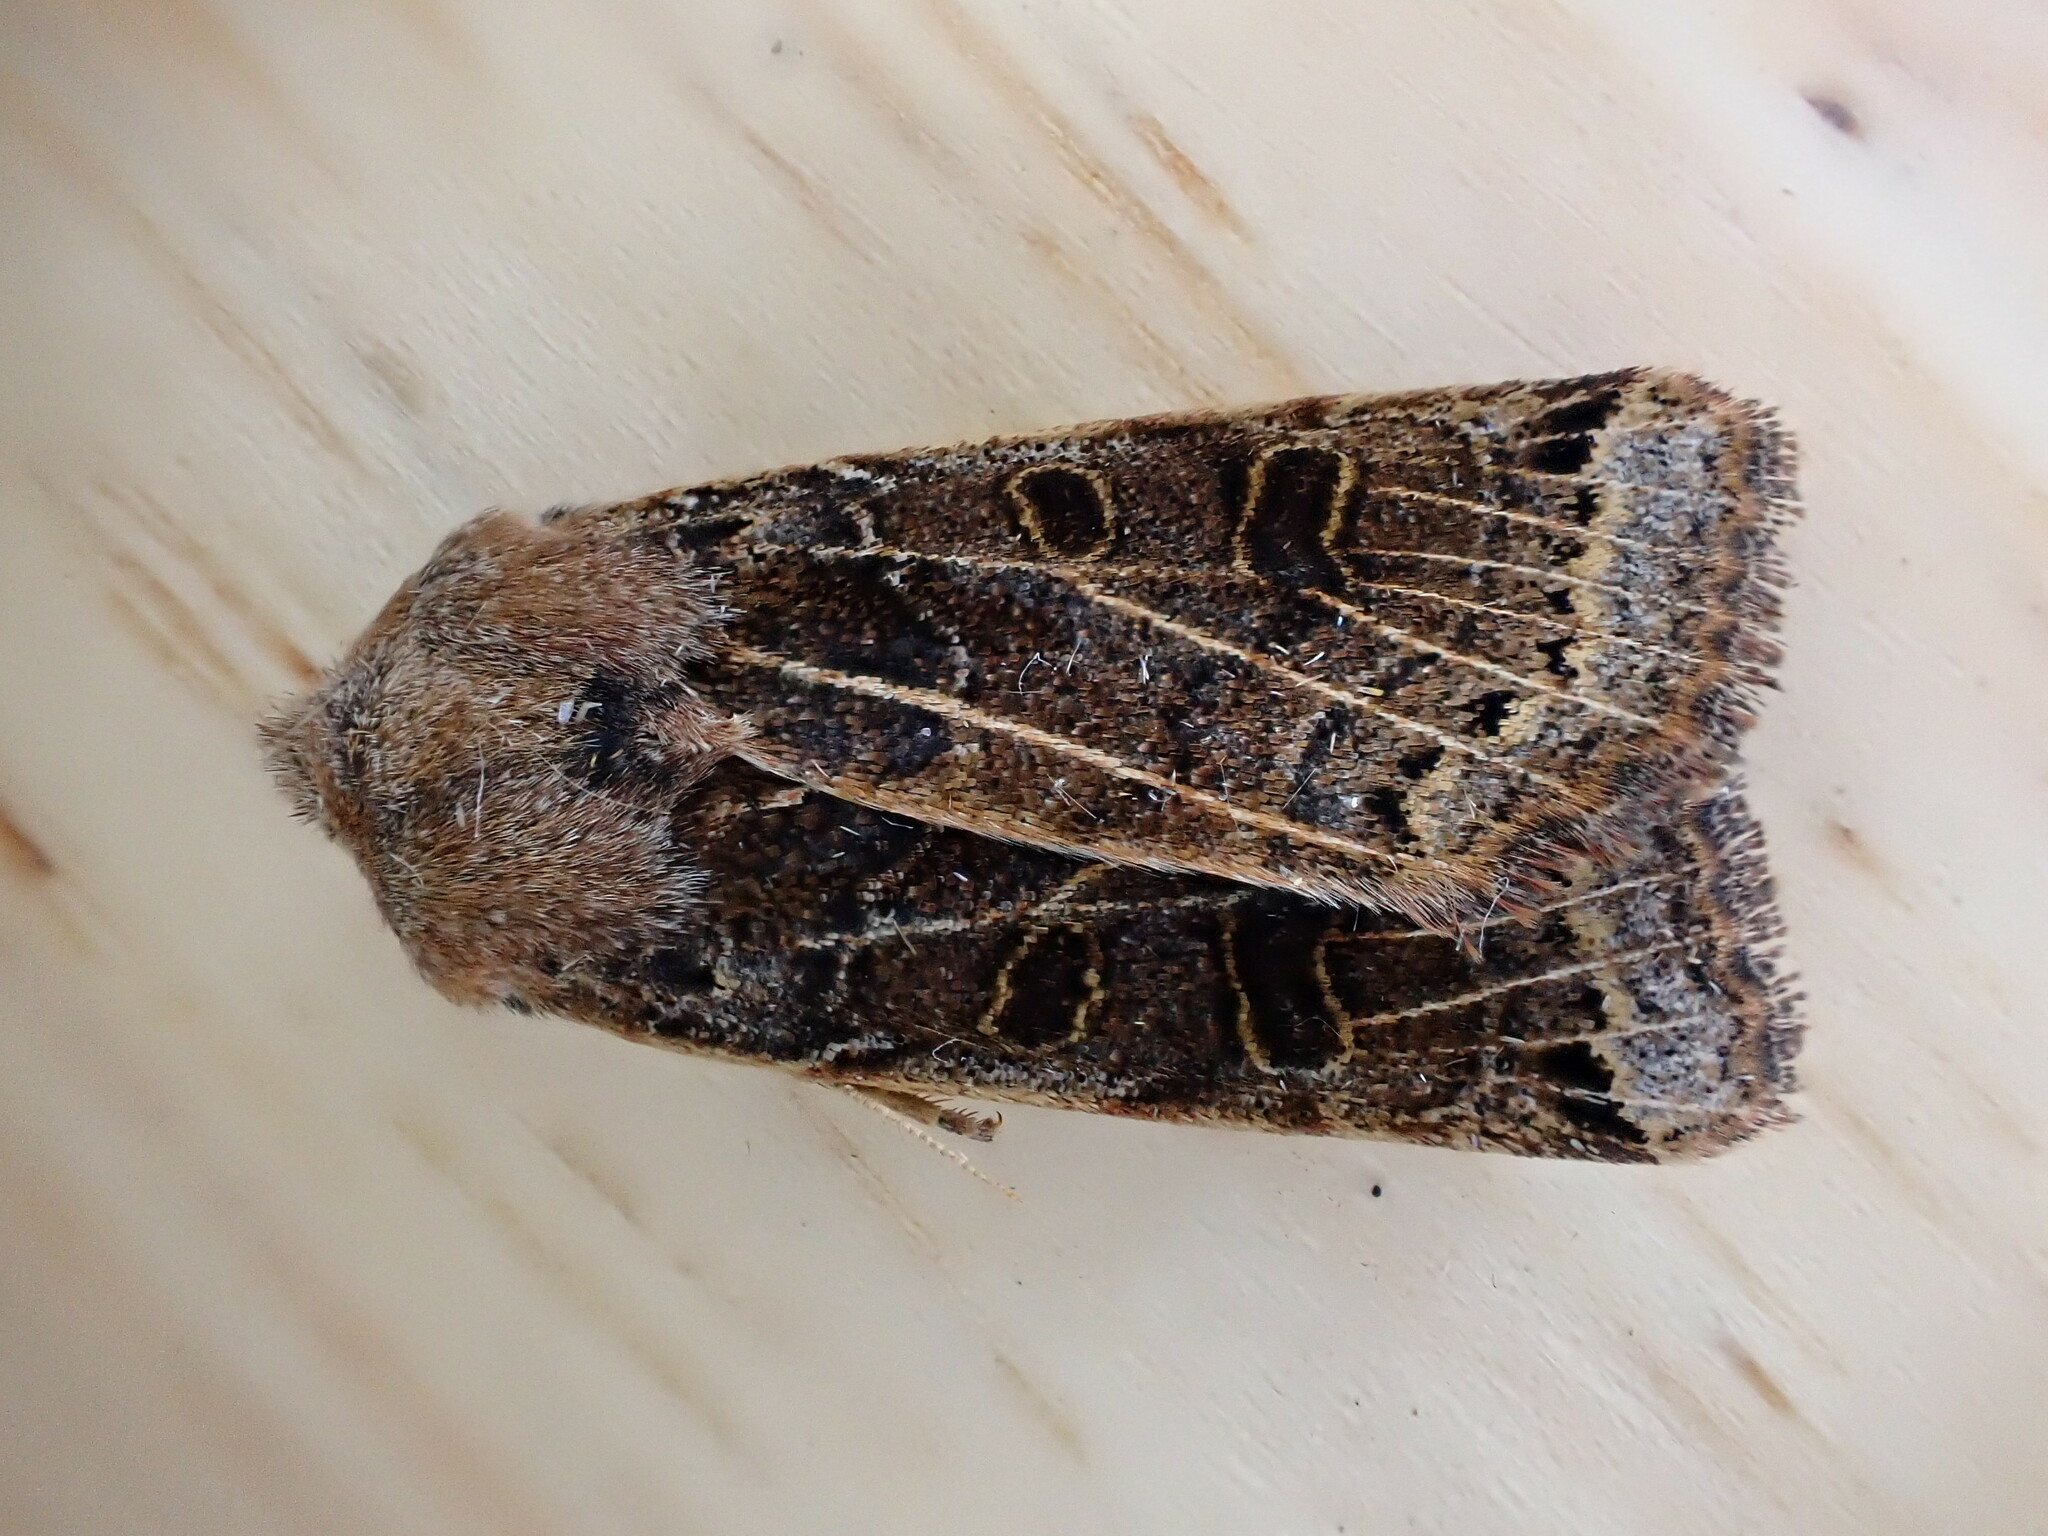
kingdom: Animalia
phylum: Arthropoda
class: Insecta
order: Lepidoptera
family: Noctuidae
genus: Agrochola
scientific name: Agrochola lunosa
